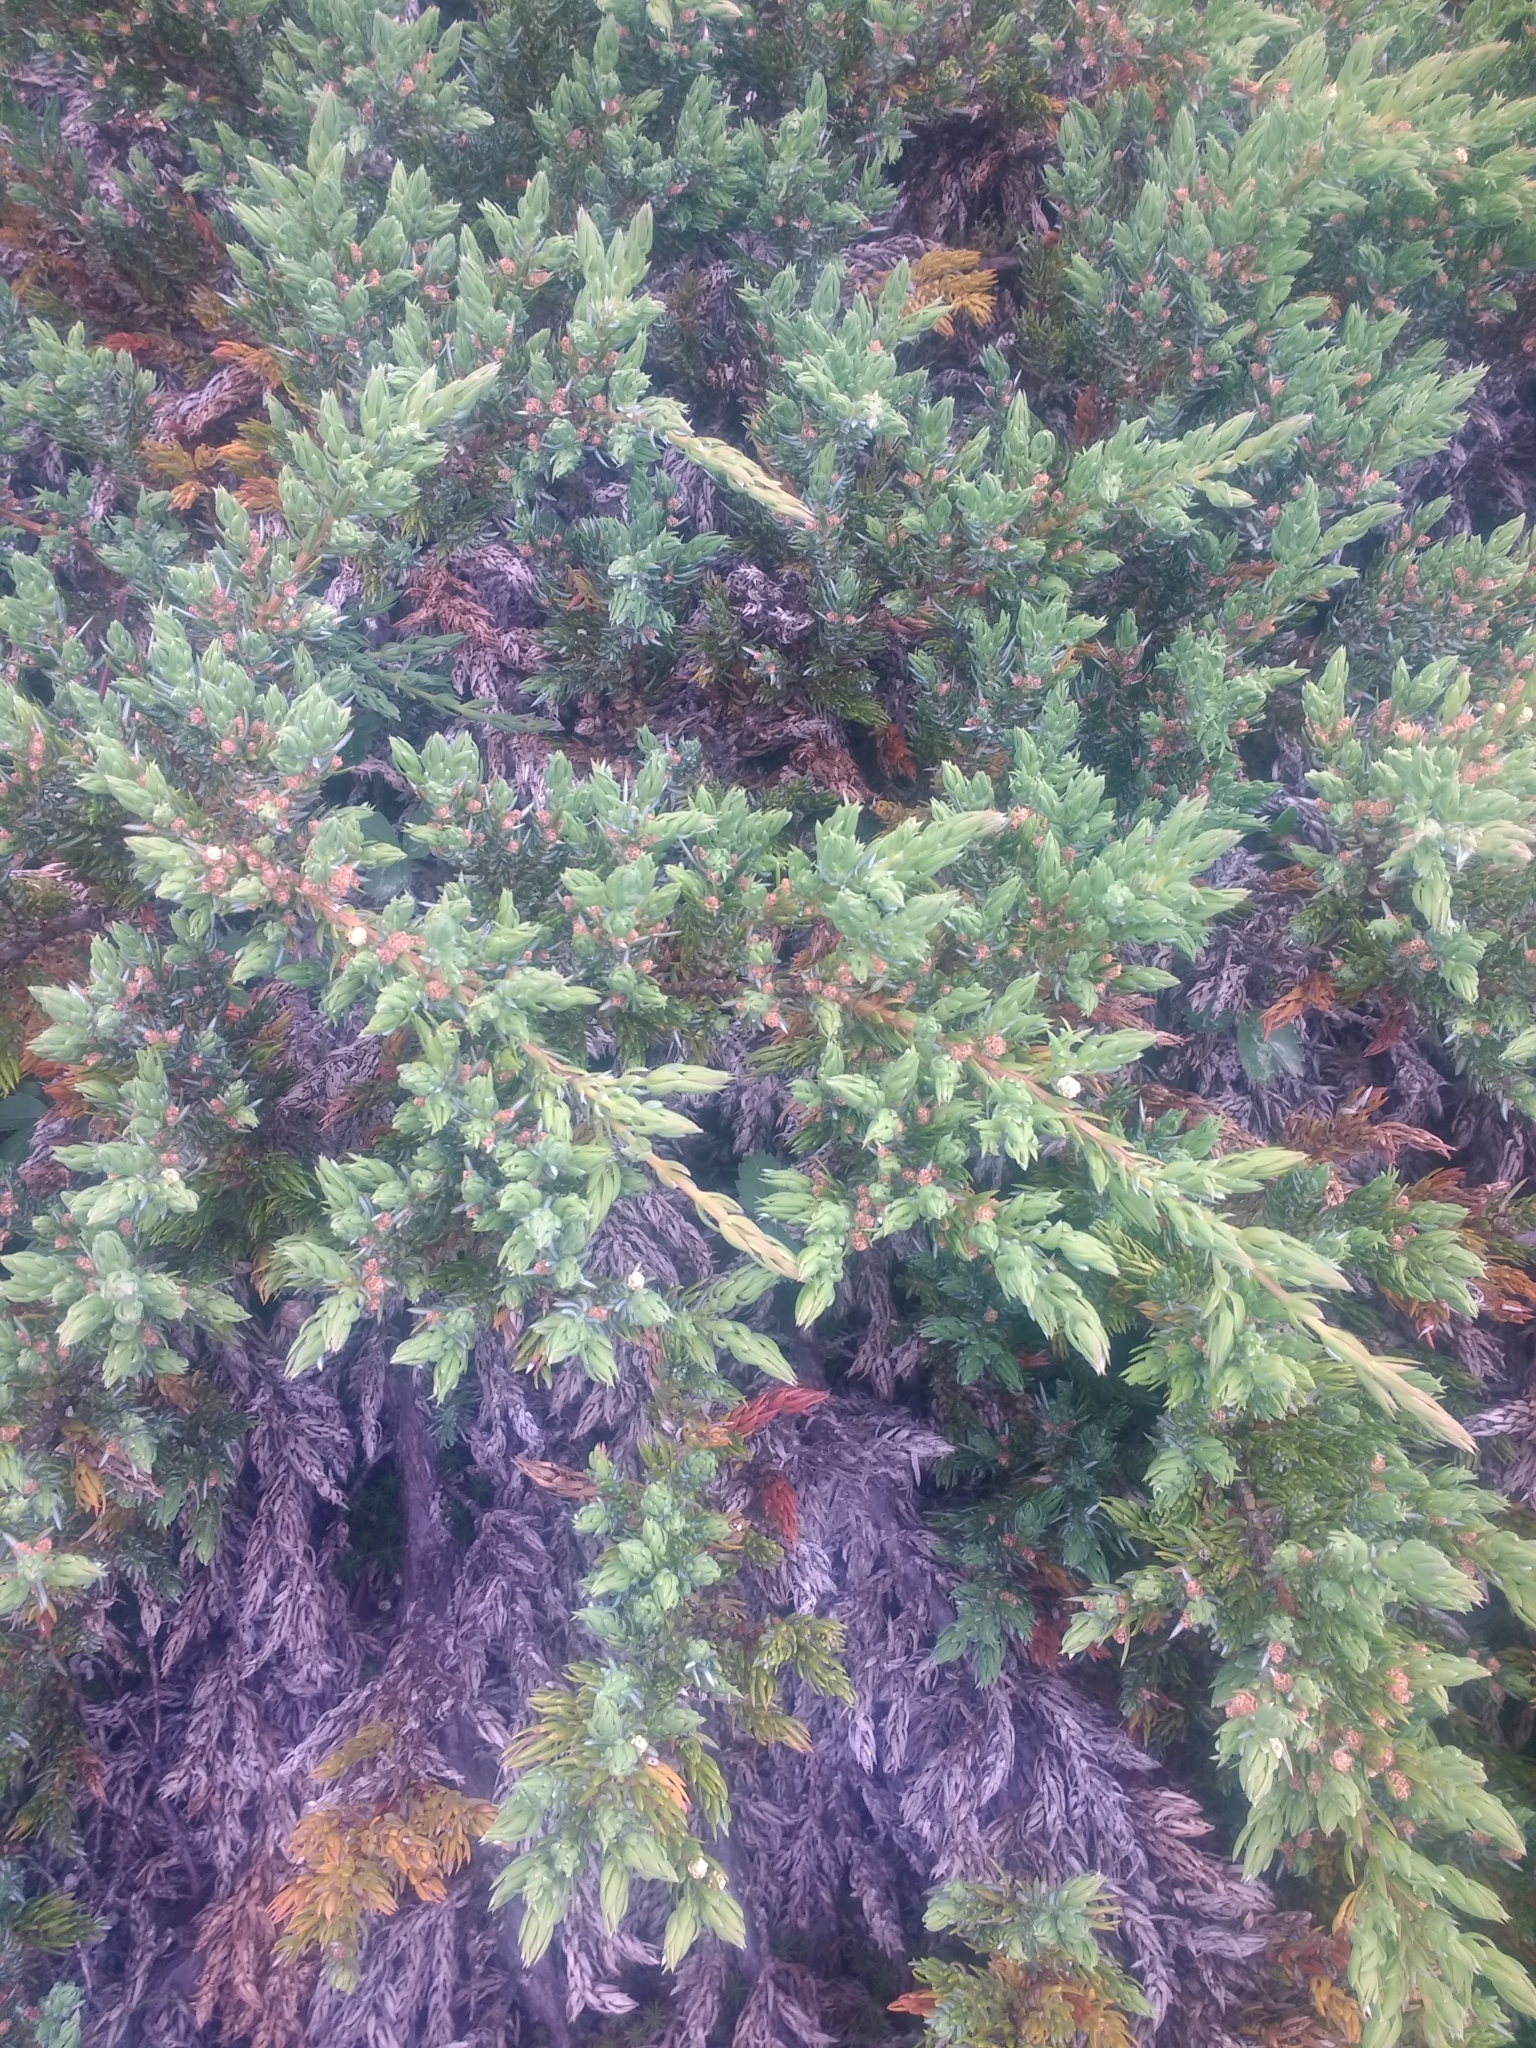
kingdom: Plantae
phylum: Tracheophyta
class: Pinopsida
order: Pinales
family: Cupressaceae
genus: Juniperus
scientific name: Juniperus communis
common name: Common juniper
